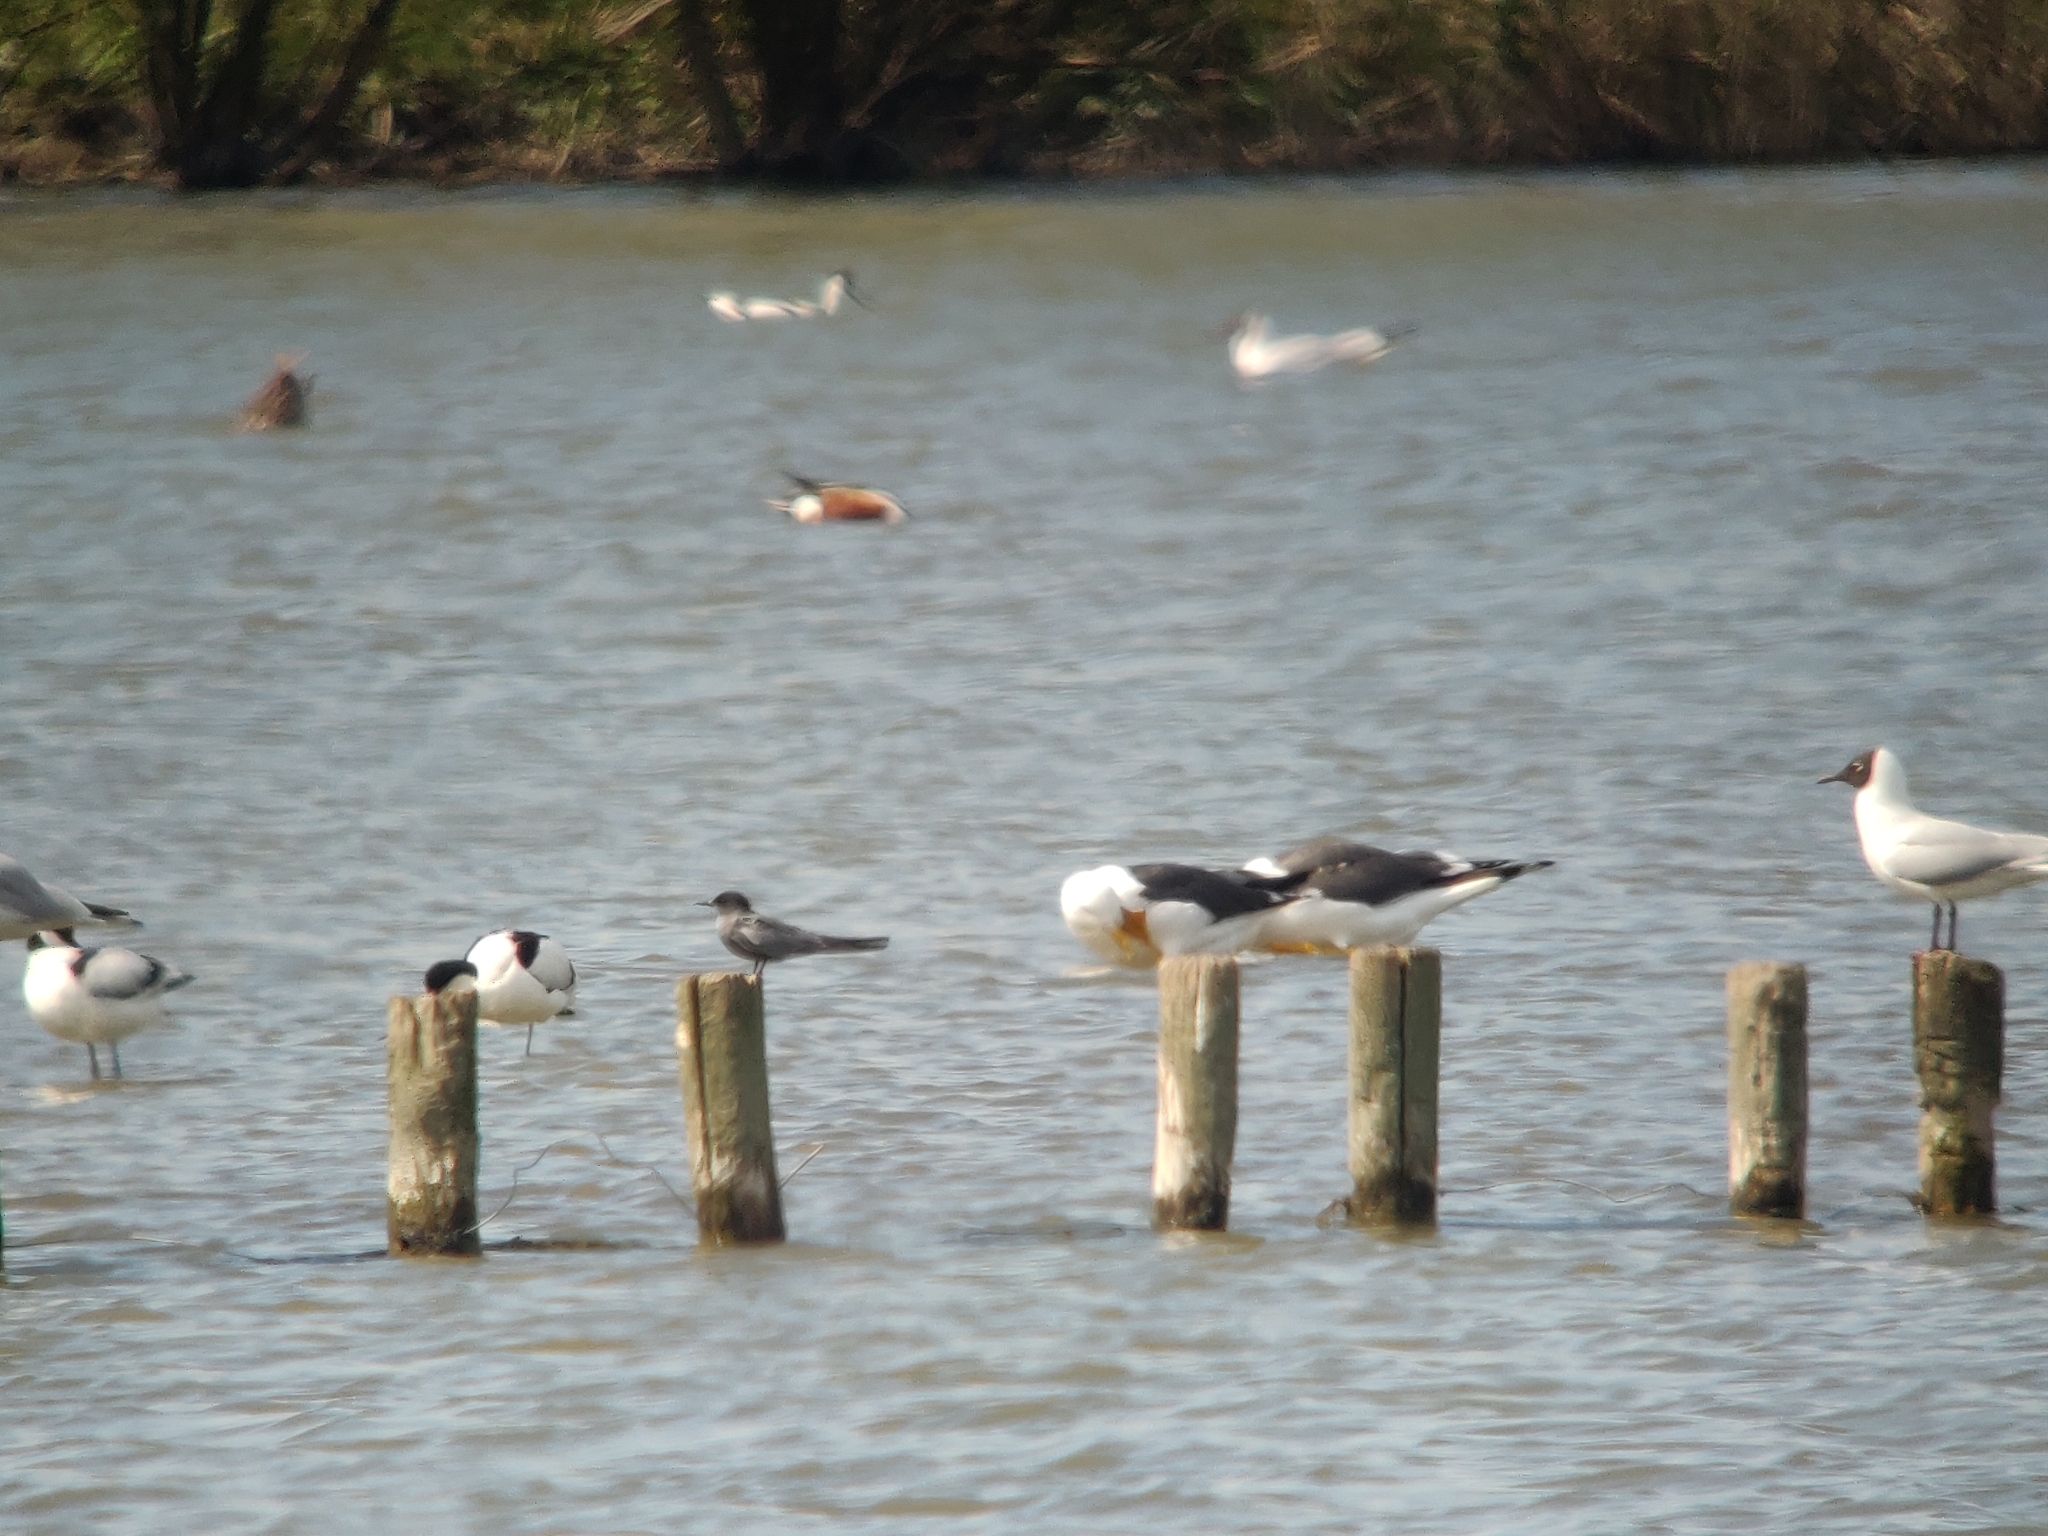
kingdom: Animalia
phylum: Chordata
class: Aves
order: Charadriiformes
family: Laridae
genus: Chlidonias
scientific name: Chlidonias niger
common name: Black tern
